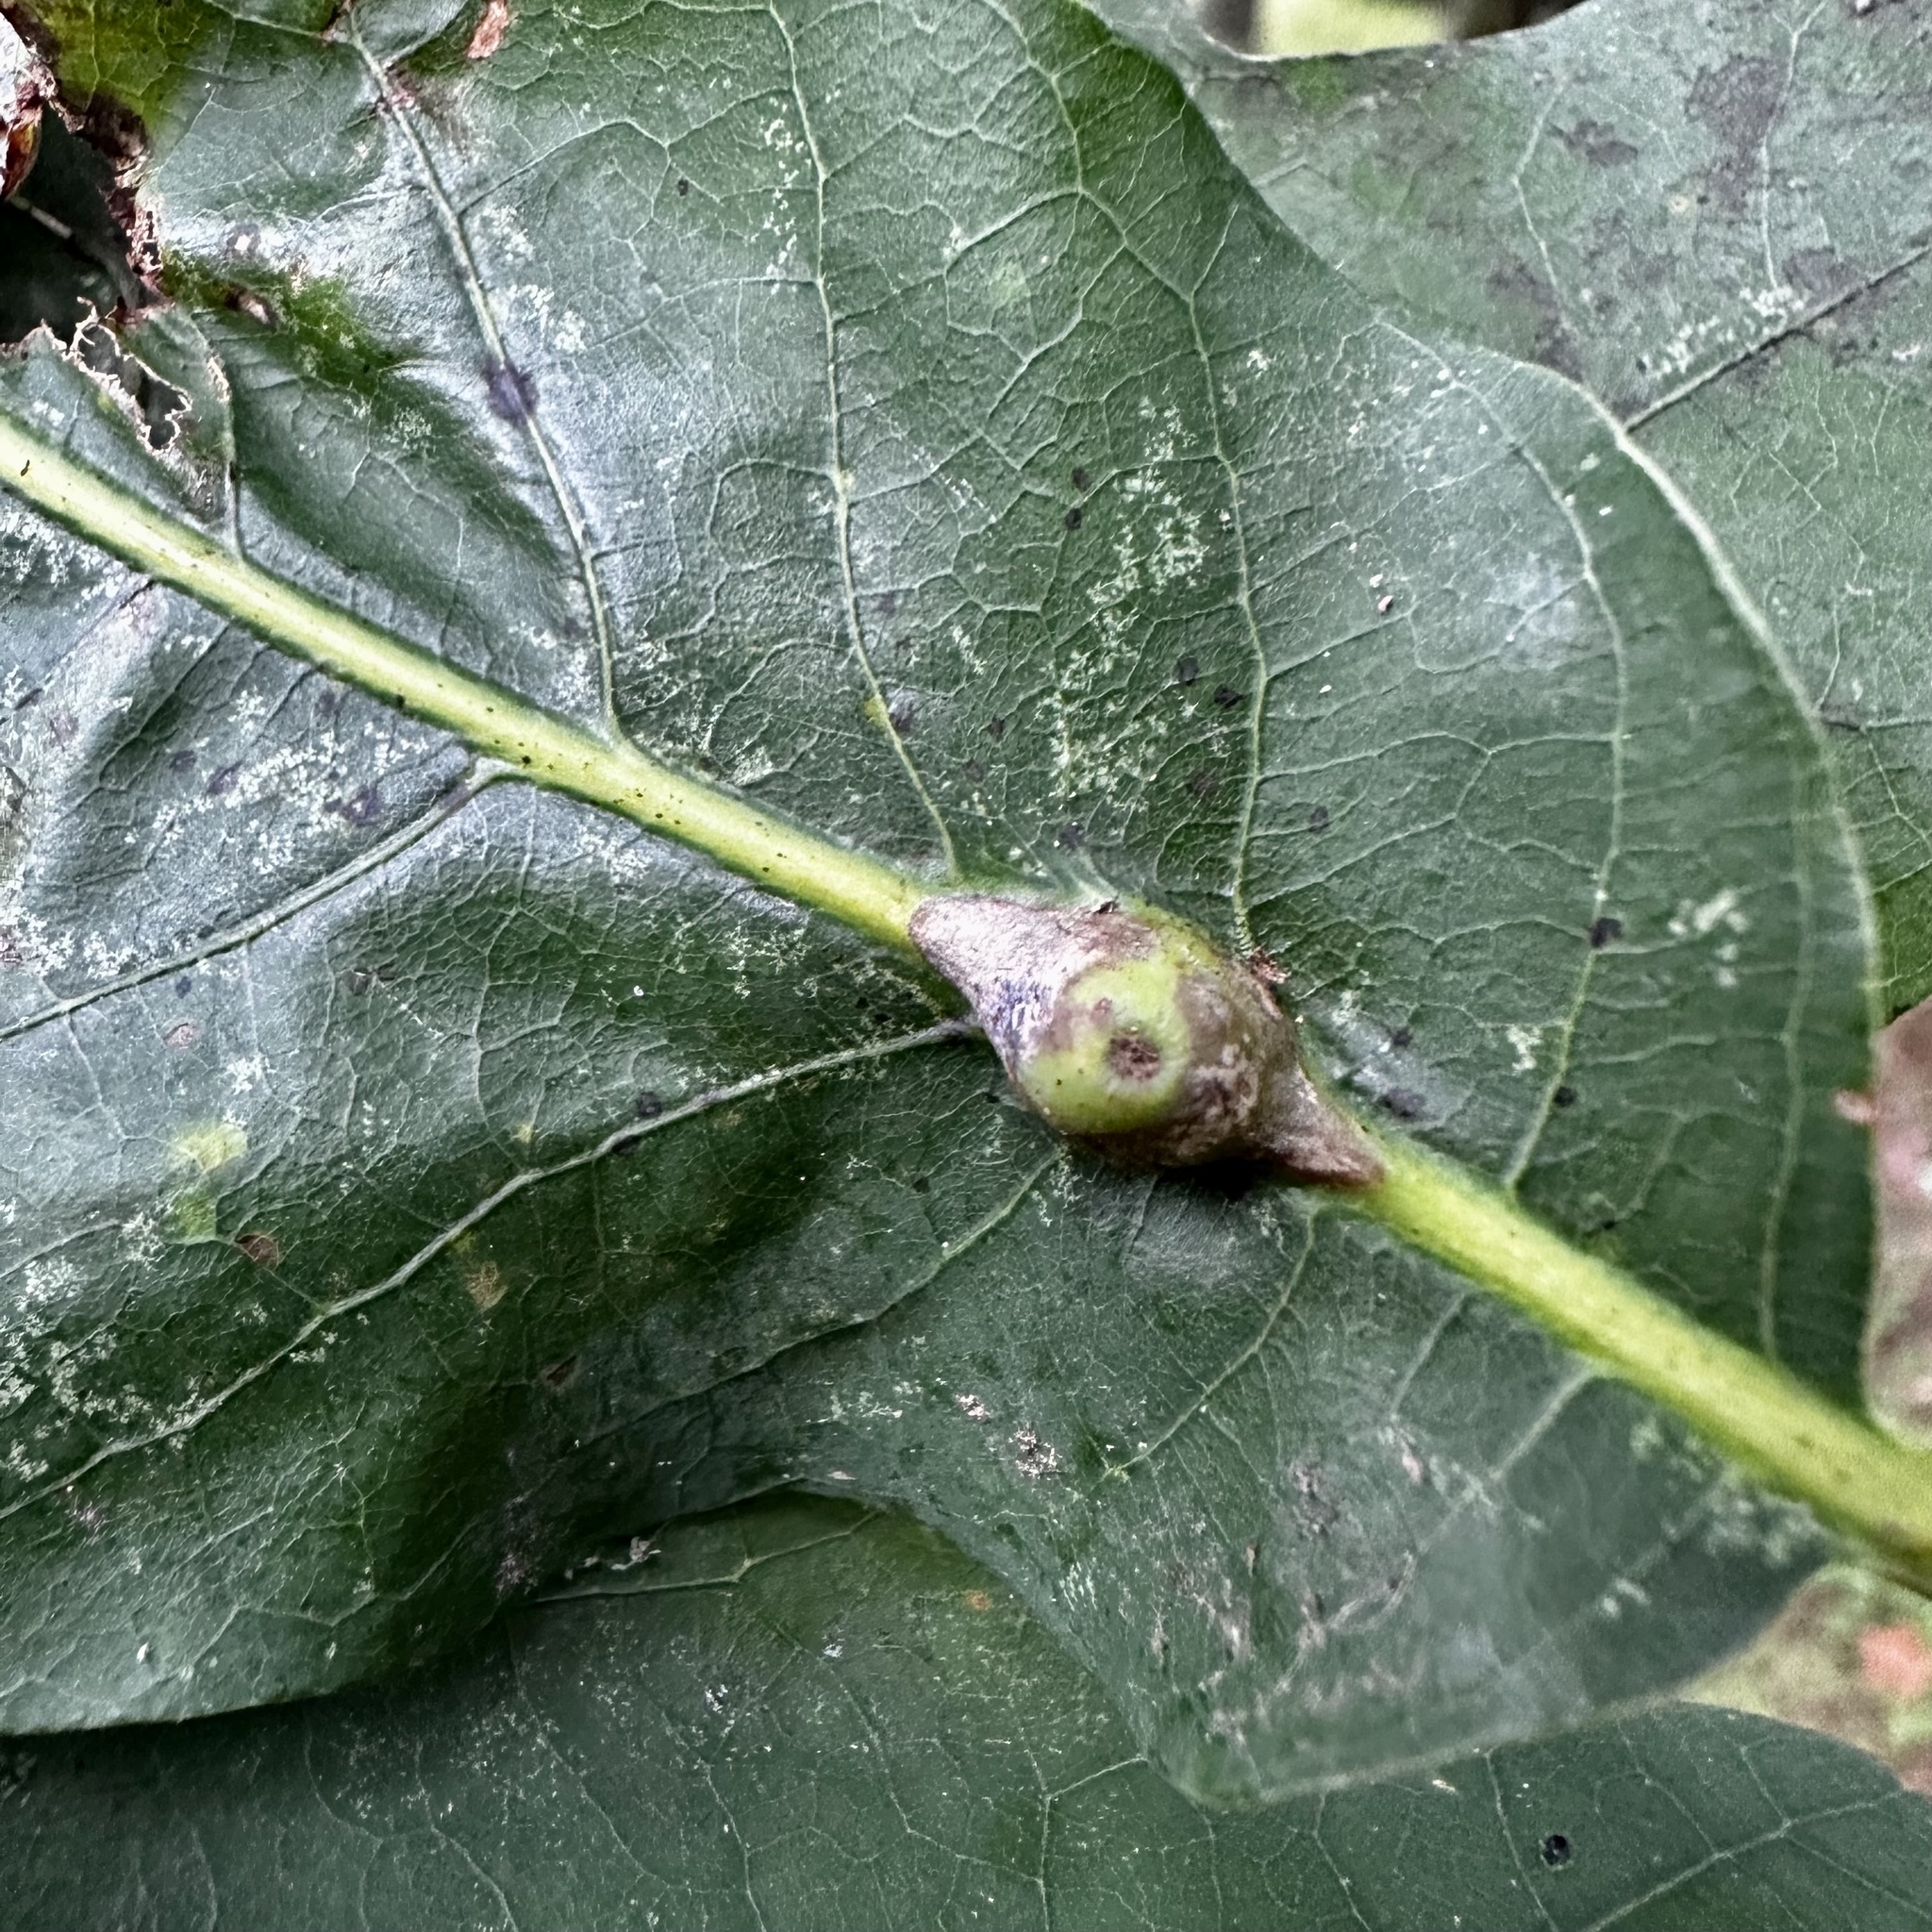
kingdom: Animalia
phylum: Arthropoda
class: Insecta
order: Hymenoptera
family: Cynipidae
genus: Andricus
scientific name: Andricus
